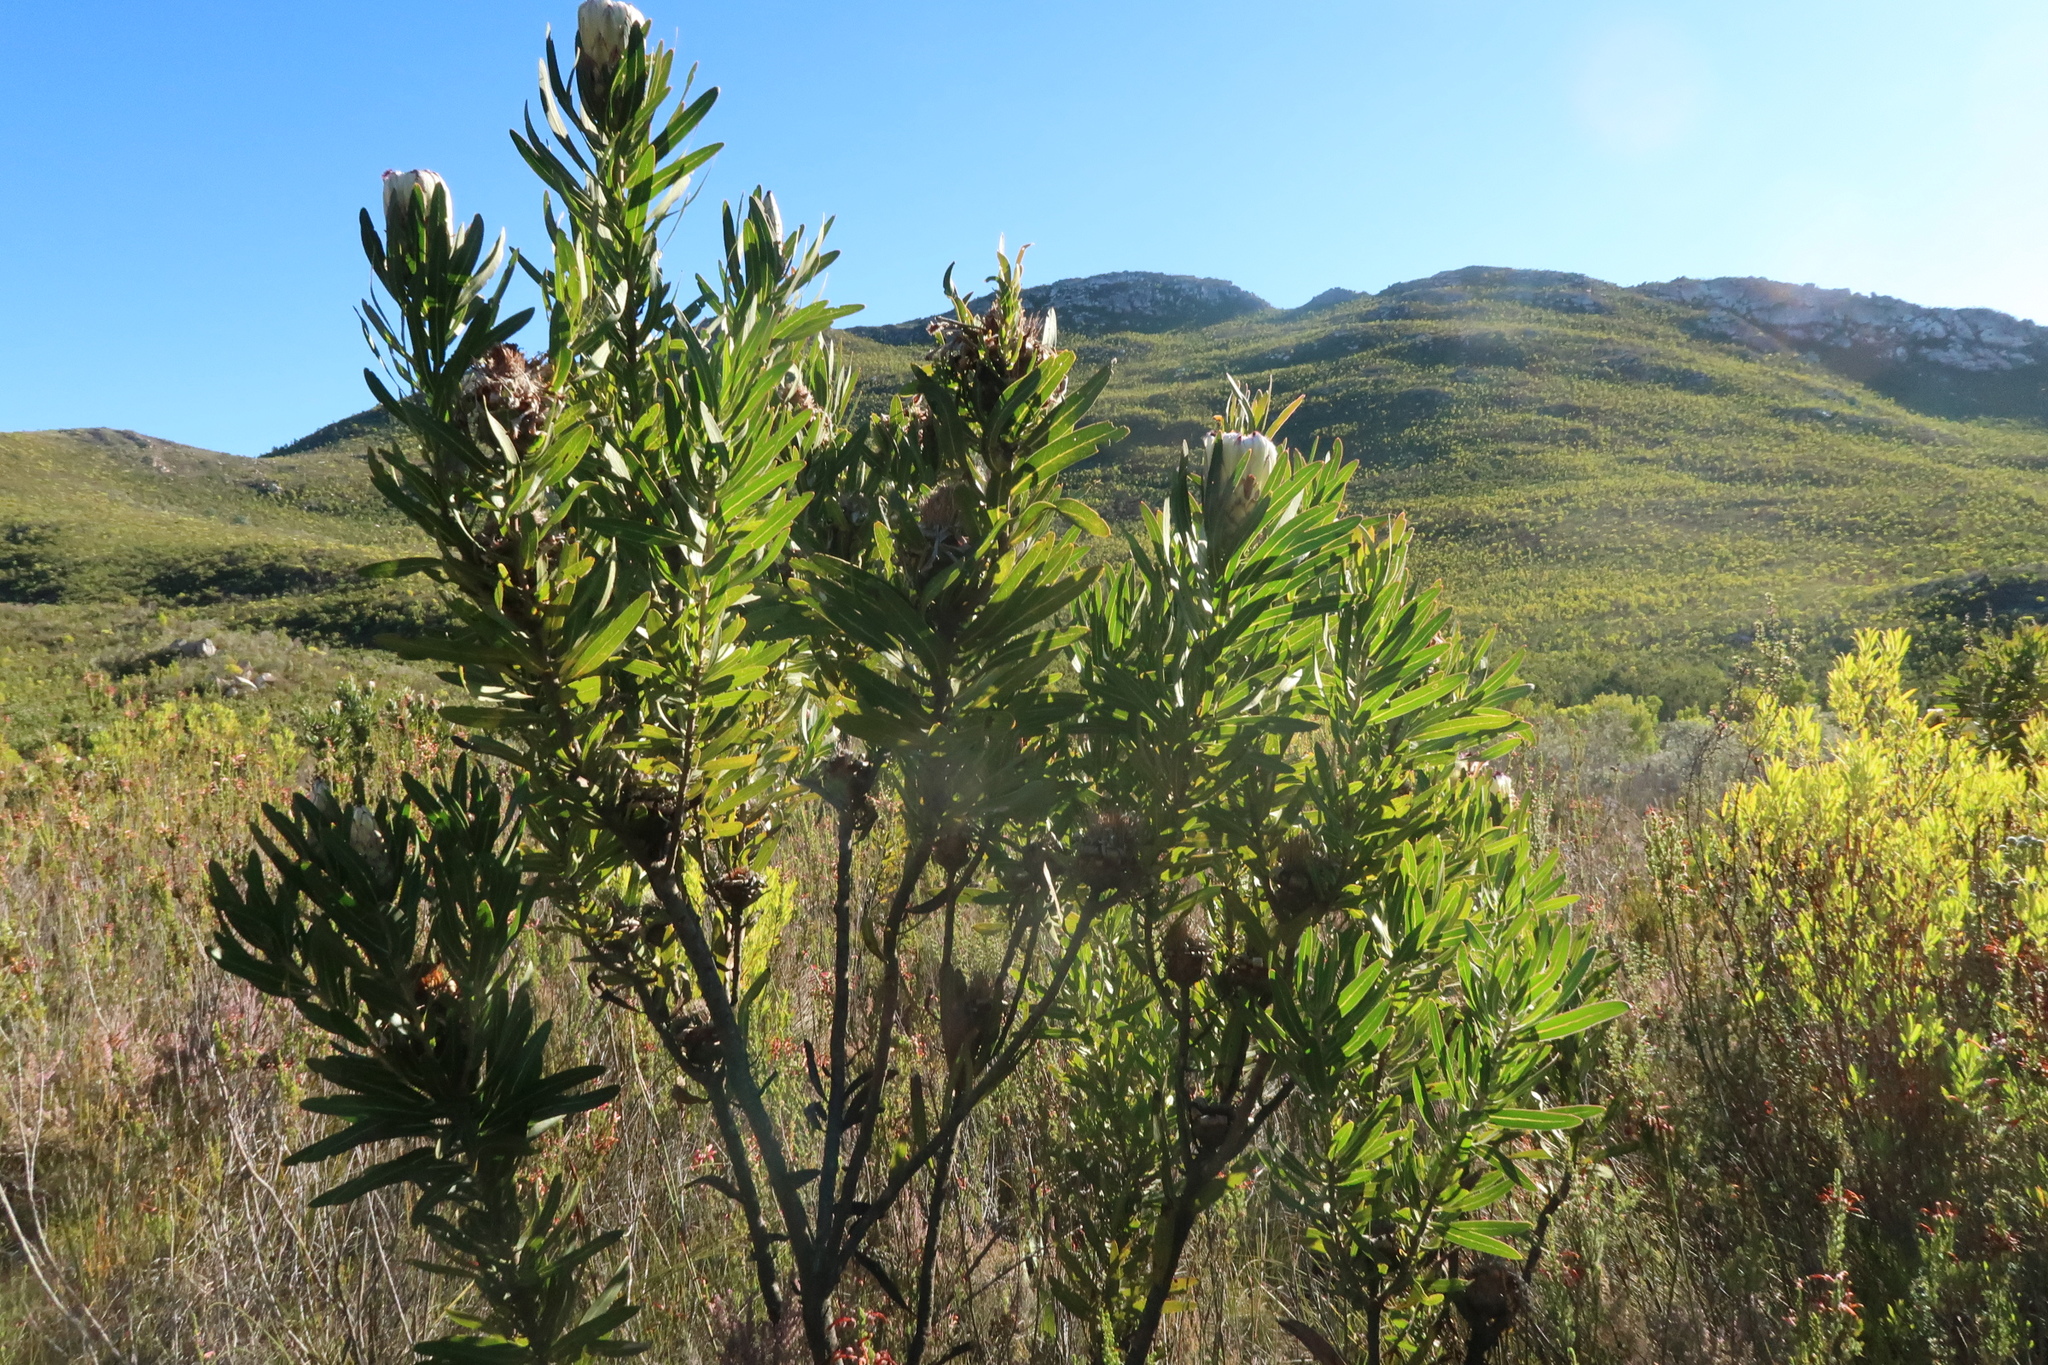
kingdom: Plantae
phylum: Tracheophyta
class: Magnoliopsida
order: Proteales
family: Proteaceae
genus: Protea
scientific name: Protea neriifolia
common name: Blue sugarbush
